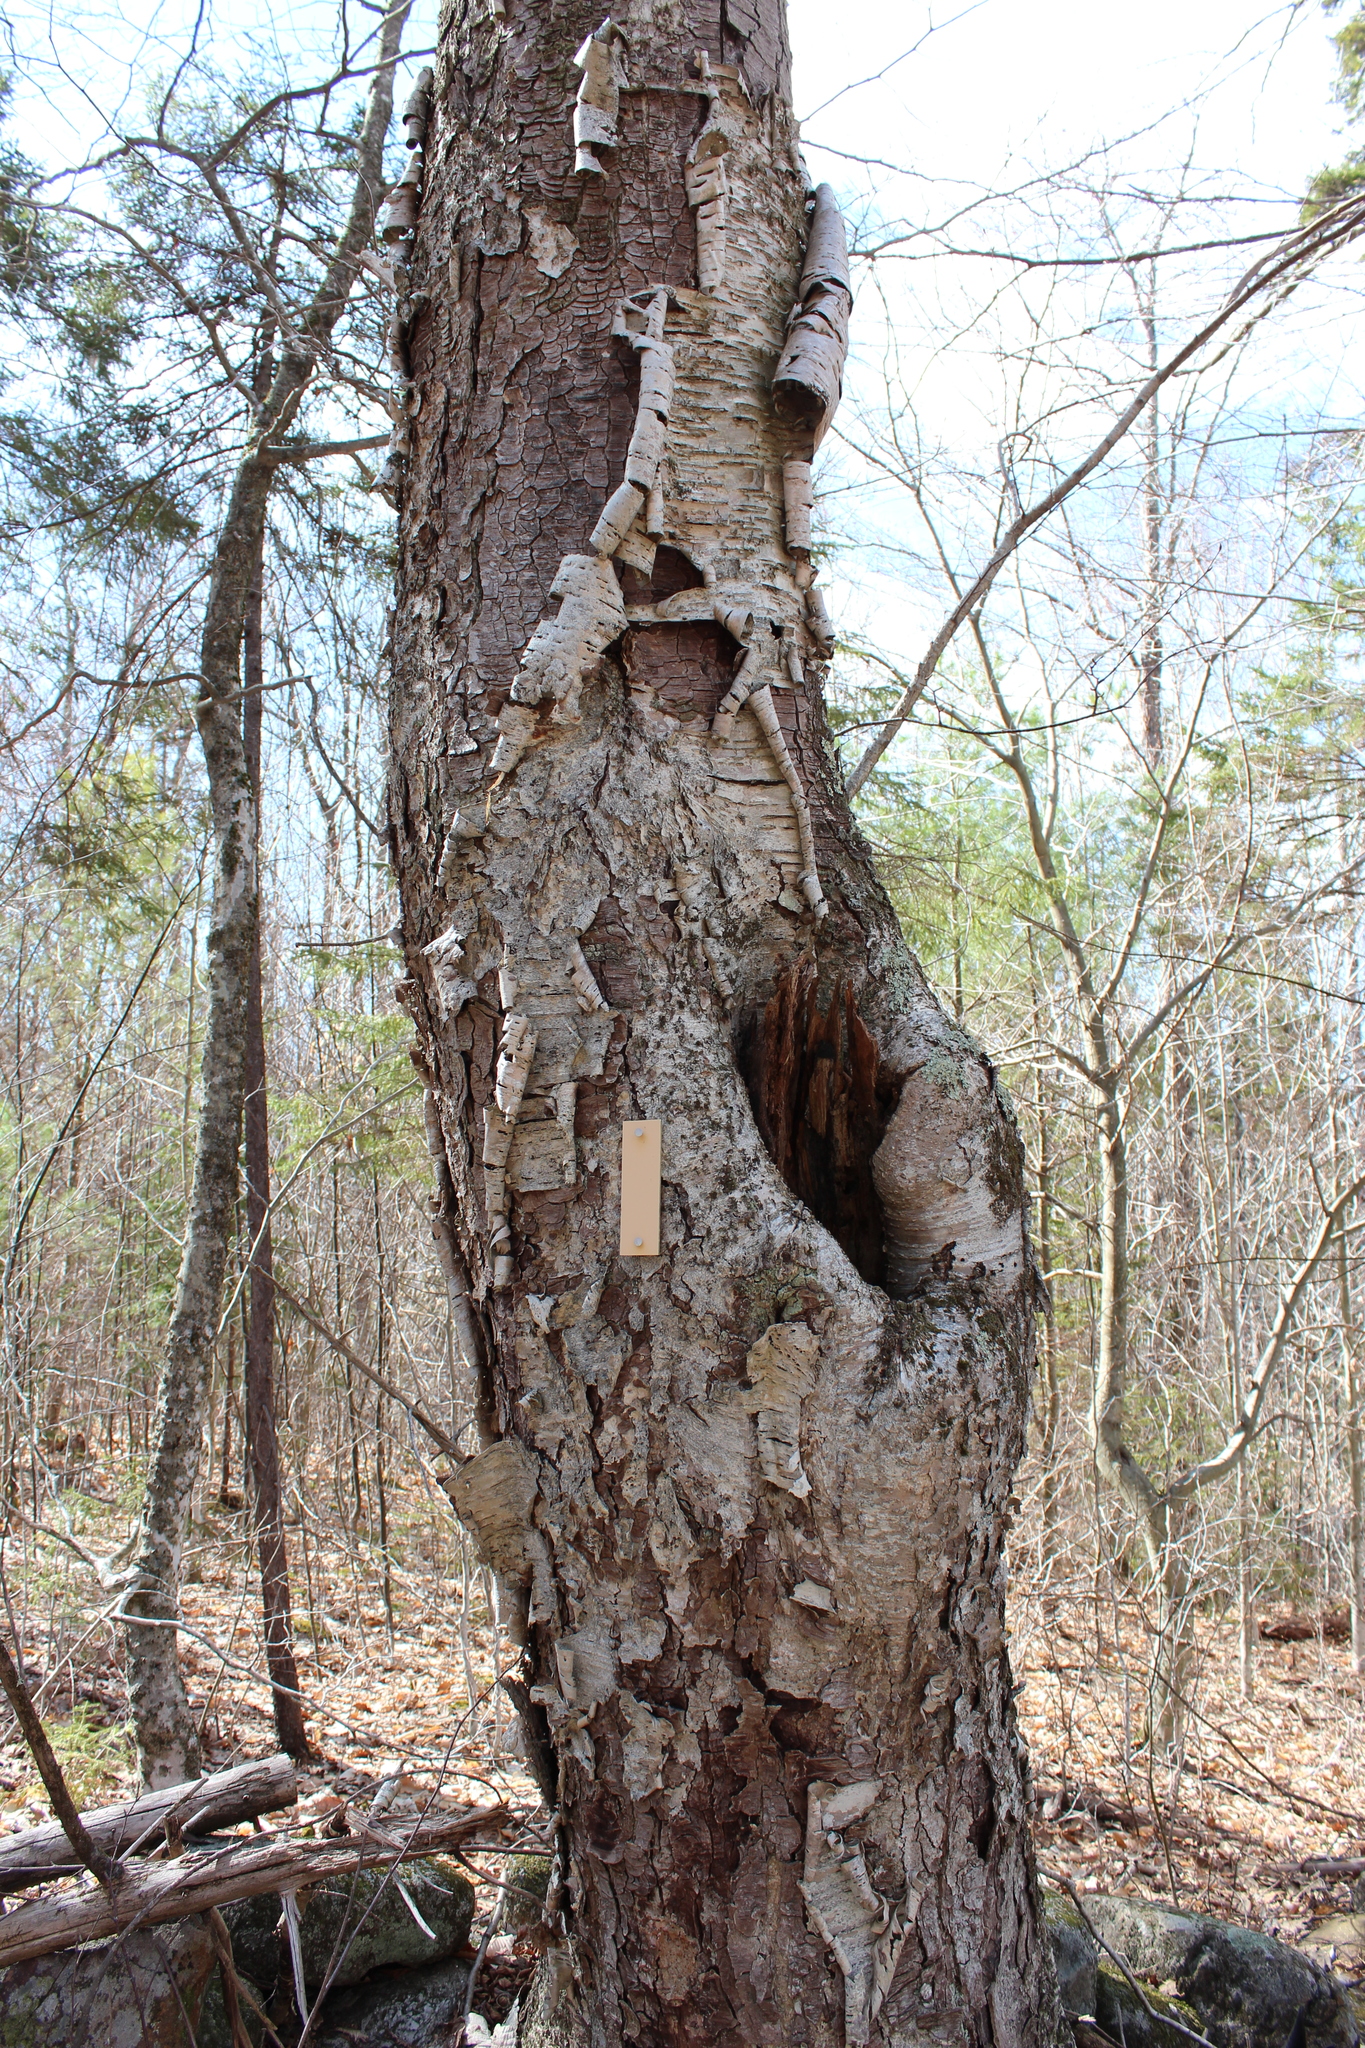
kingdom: Plantae
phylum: Tracheophyta
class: Magnoliopsida
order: Fagales
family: Betulaceae
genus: Betula
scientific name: Betula alleghaniensis
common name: Yellow birch
